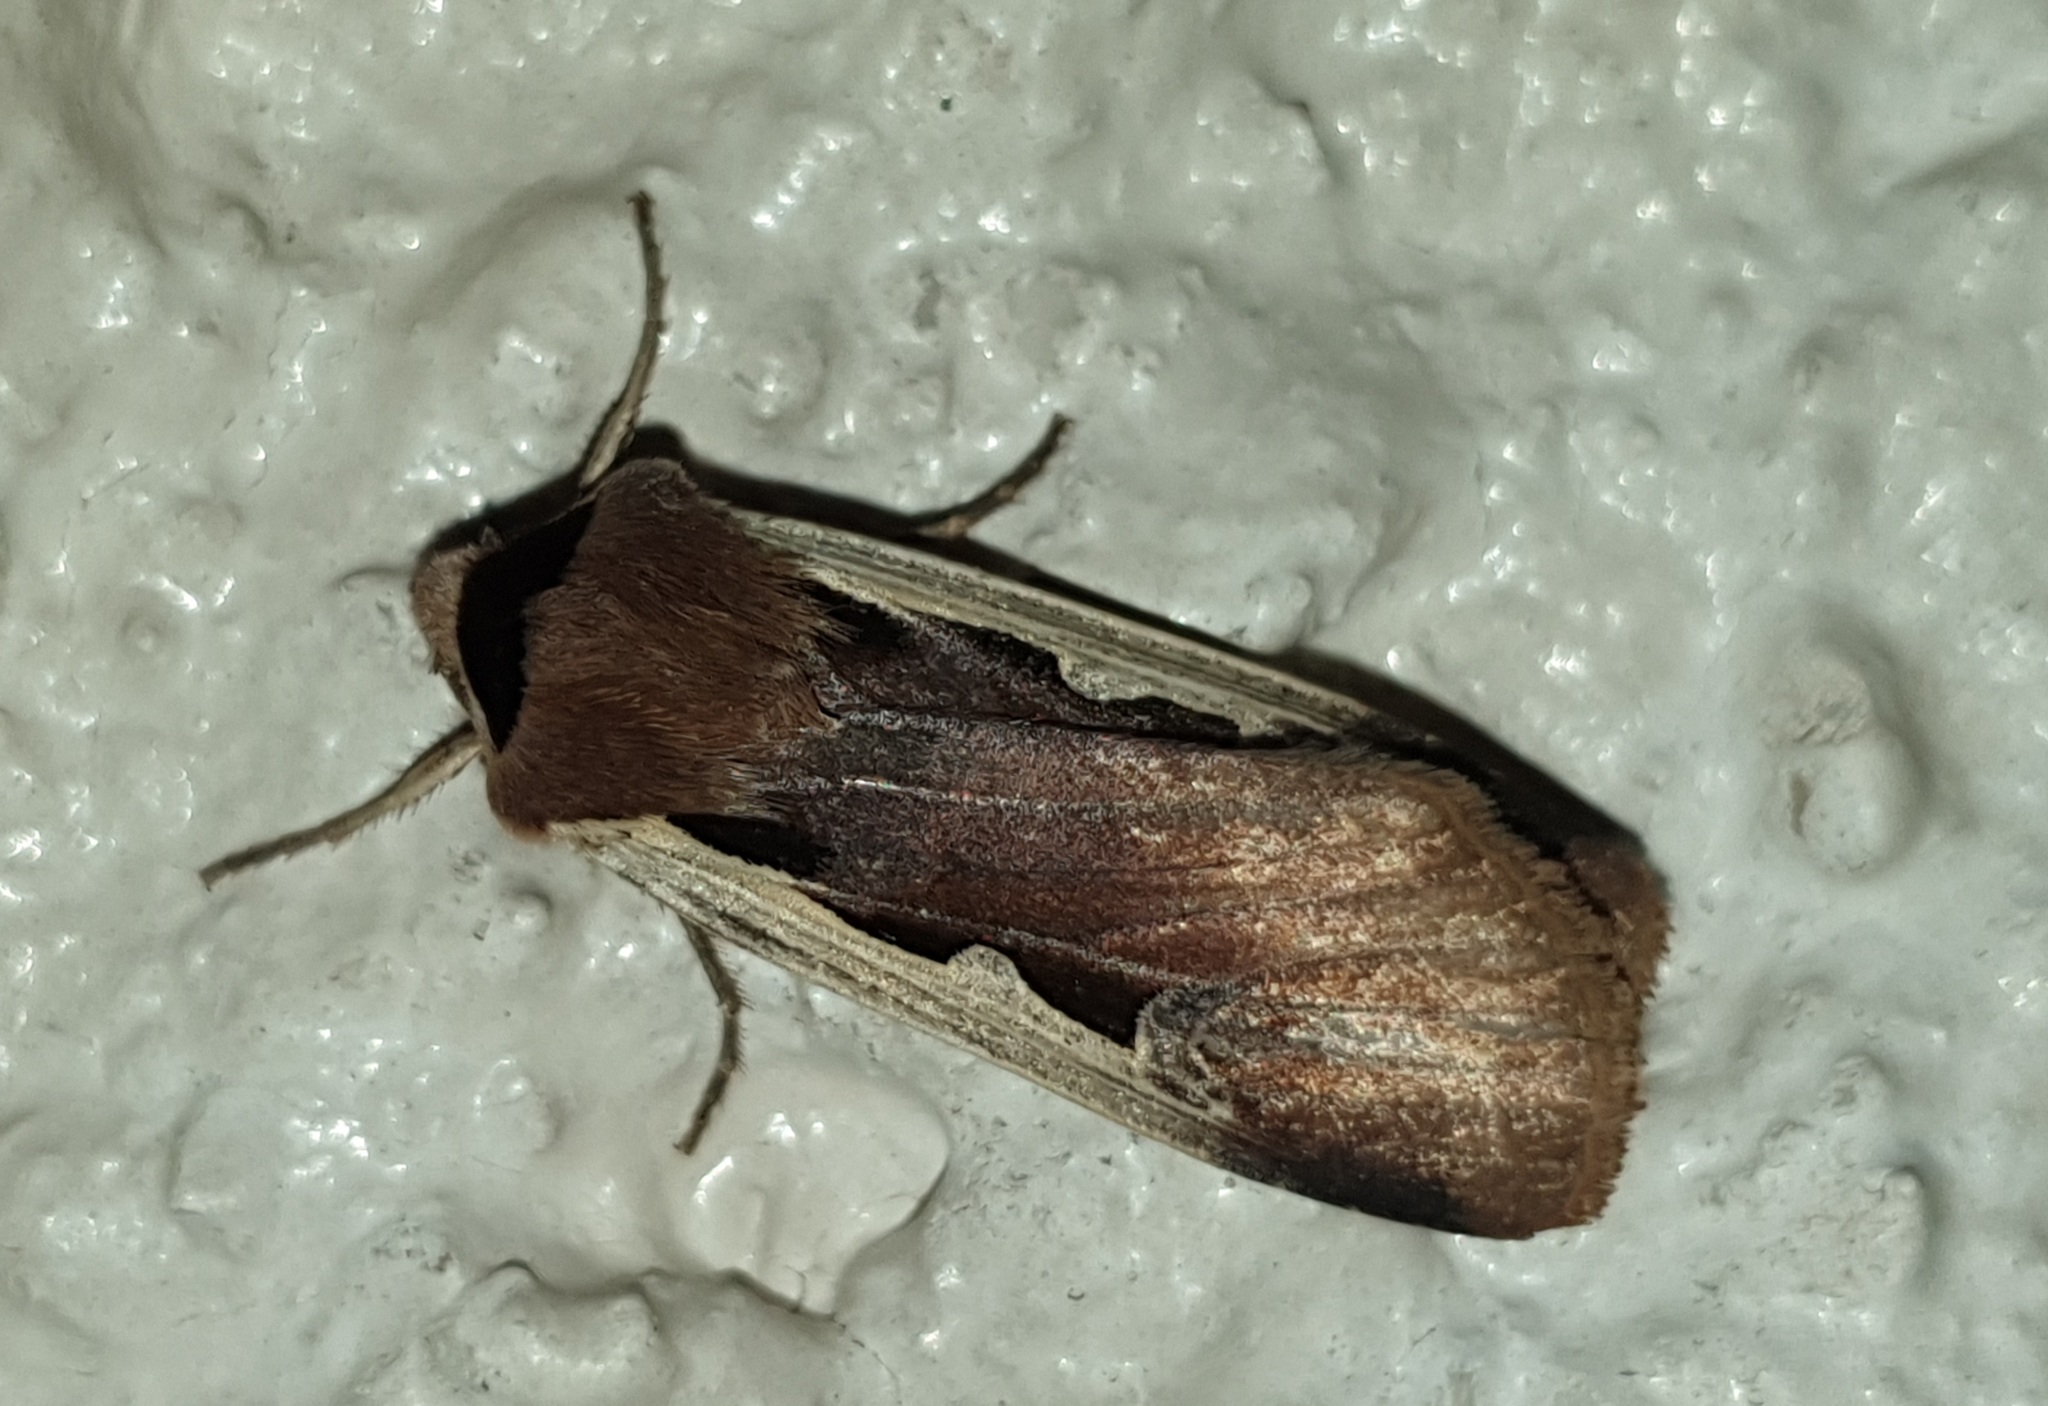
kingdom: Animalia
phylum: Arthropoda
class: Insecta
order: Lepidoptera
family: Noctuidae
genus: Dichagyris
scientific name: Dichagyris musiva
